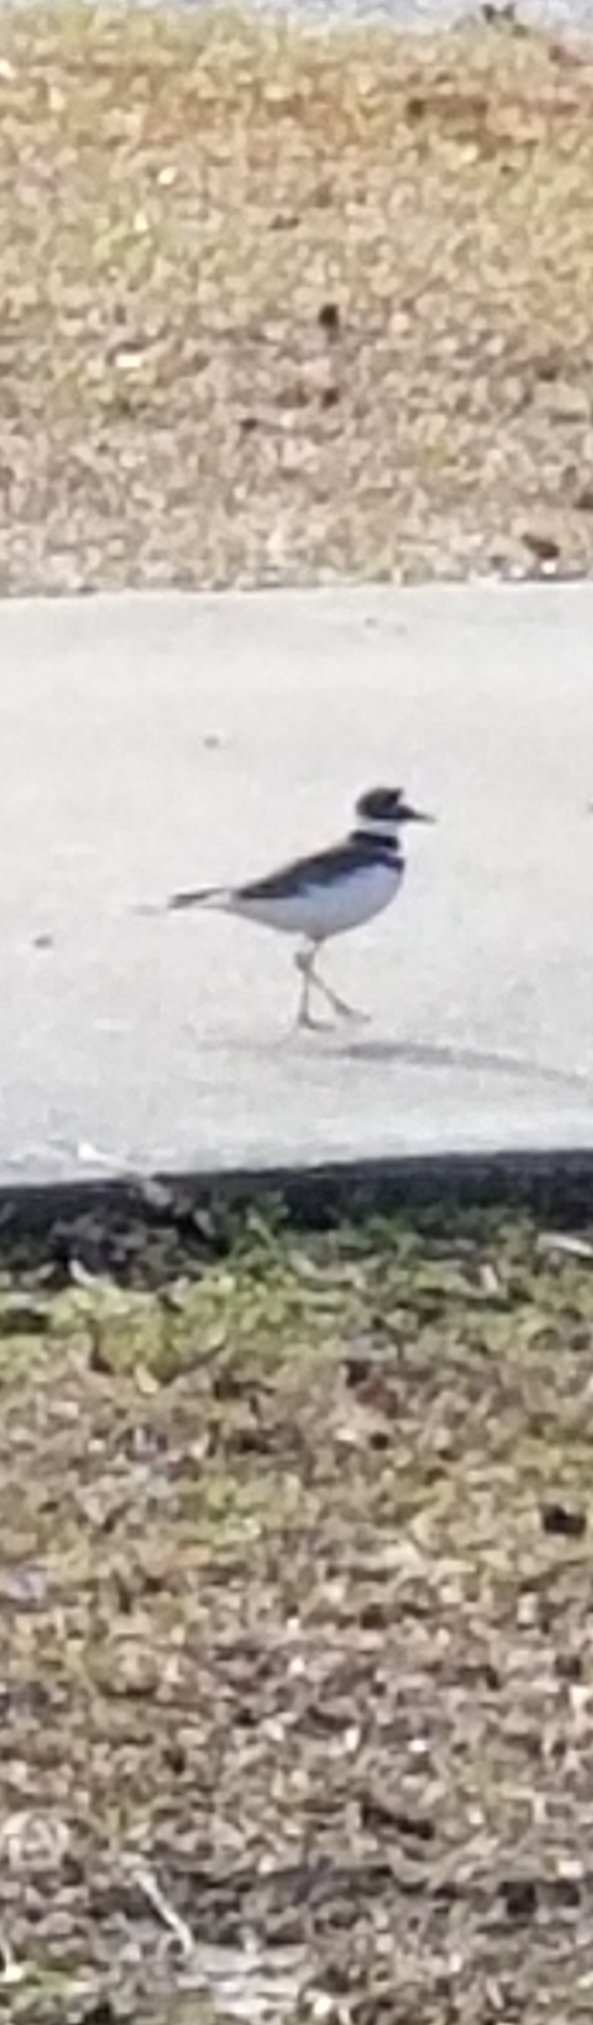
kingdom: Animalia
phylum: Chordata
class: Aves
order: Charadriiformes
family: Charadriidae
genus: Charadrius
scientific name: Charadrius vociferus
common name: Killdeer
